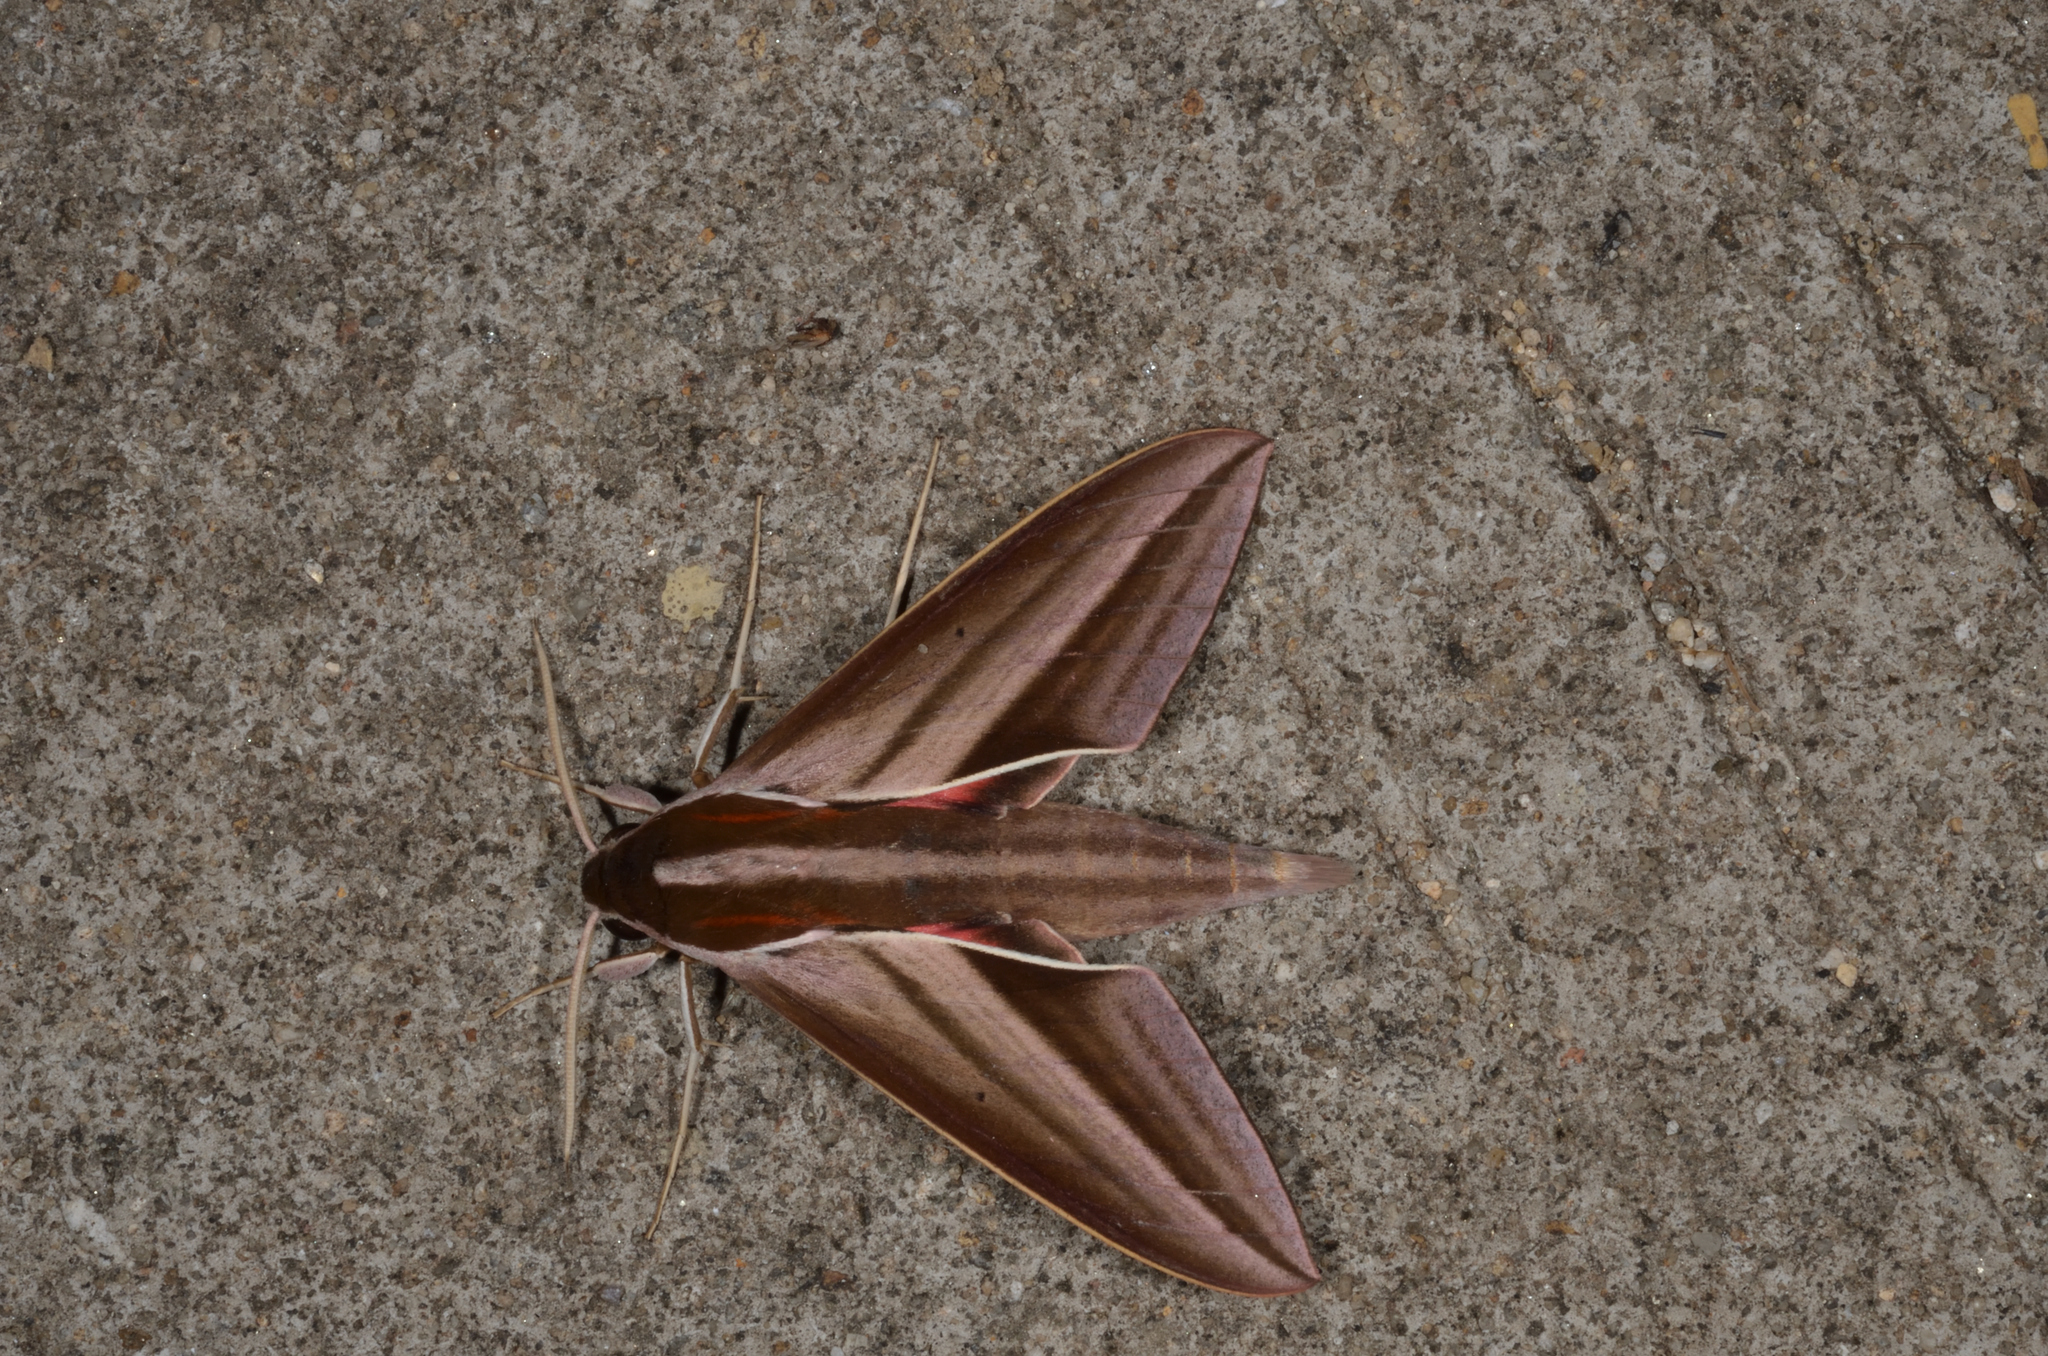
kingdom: Animalia
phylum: Arthropoda
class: Insecta
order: Lepidoptera
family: Sphingidae
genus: Theretra
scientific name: Theretra suffusa
